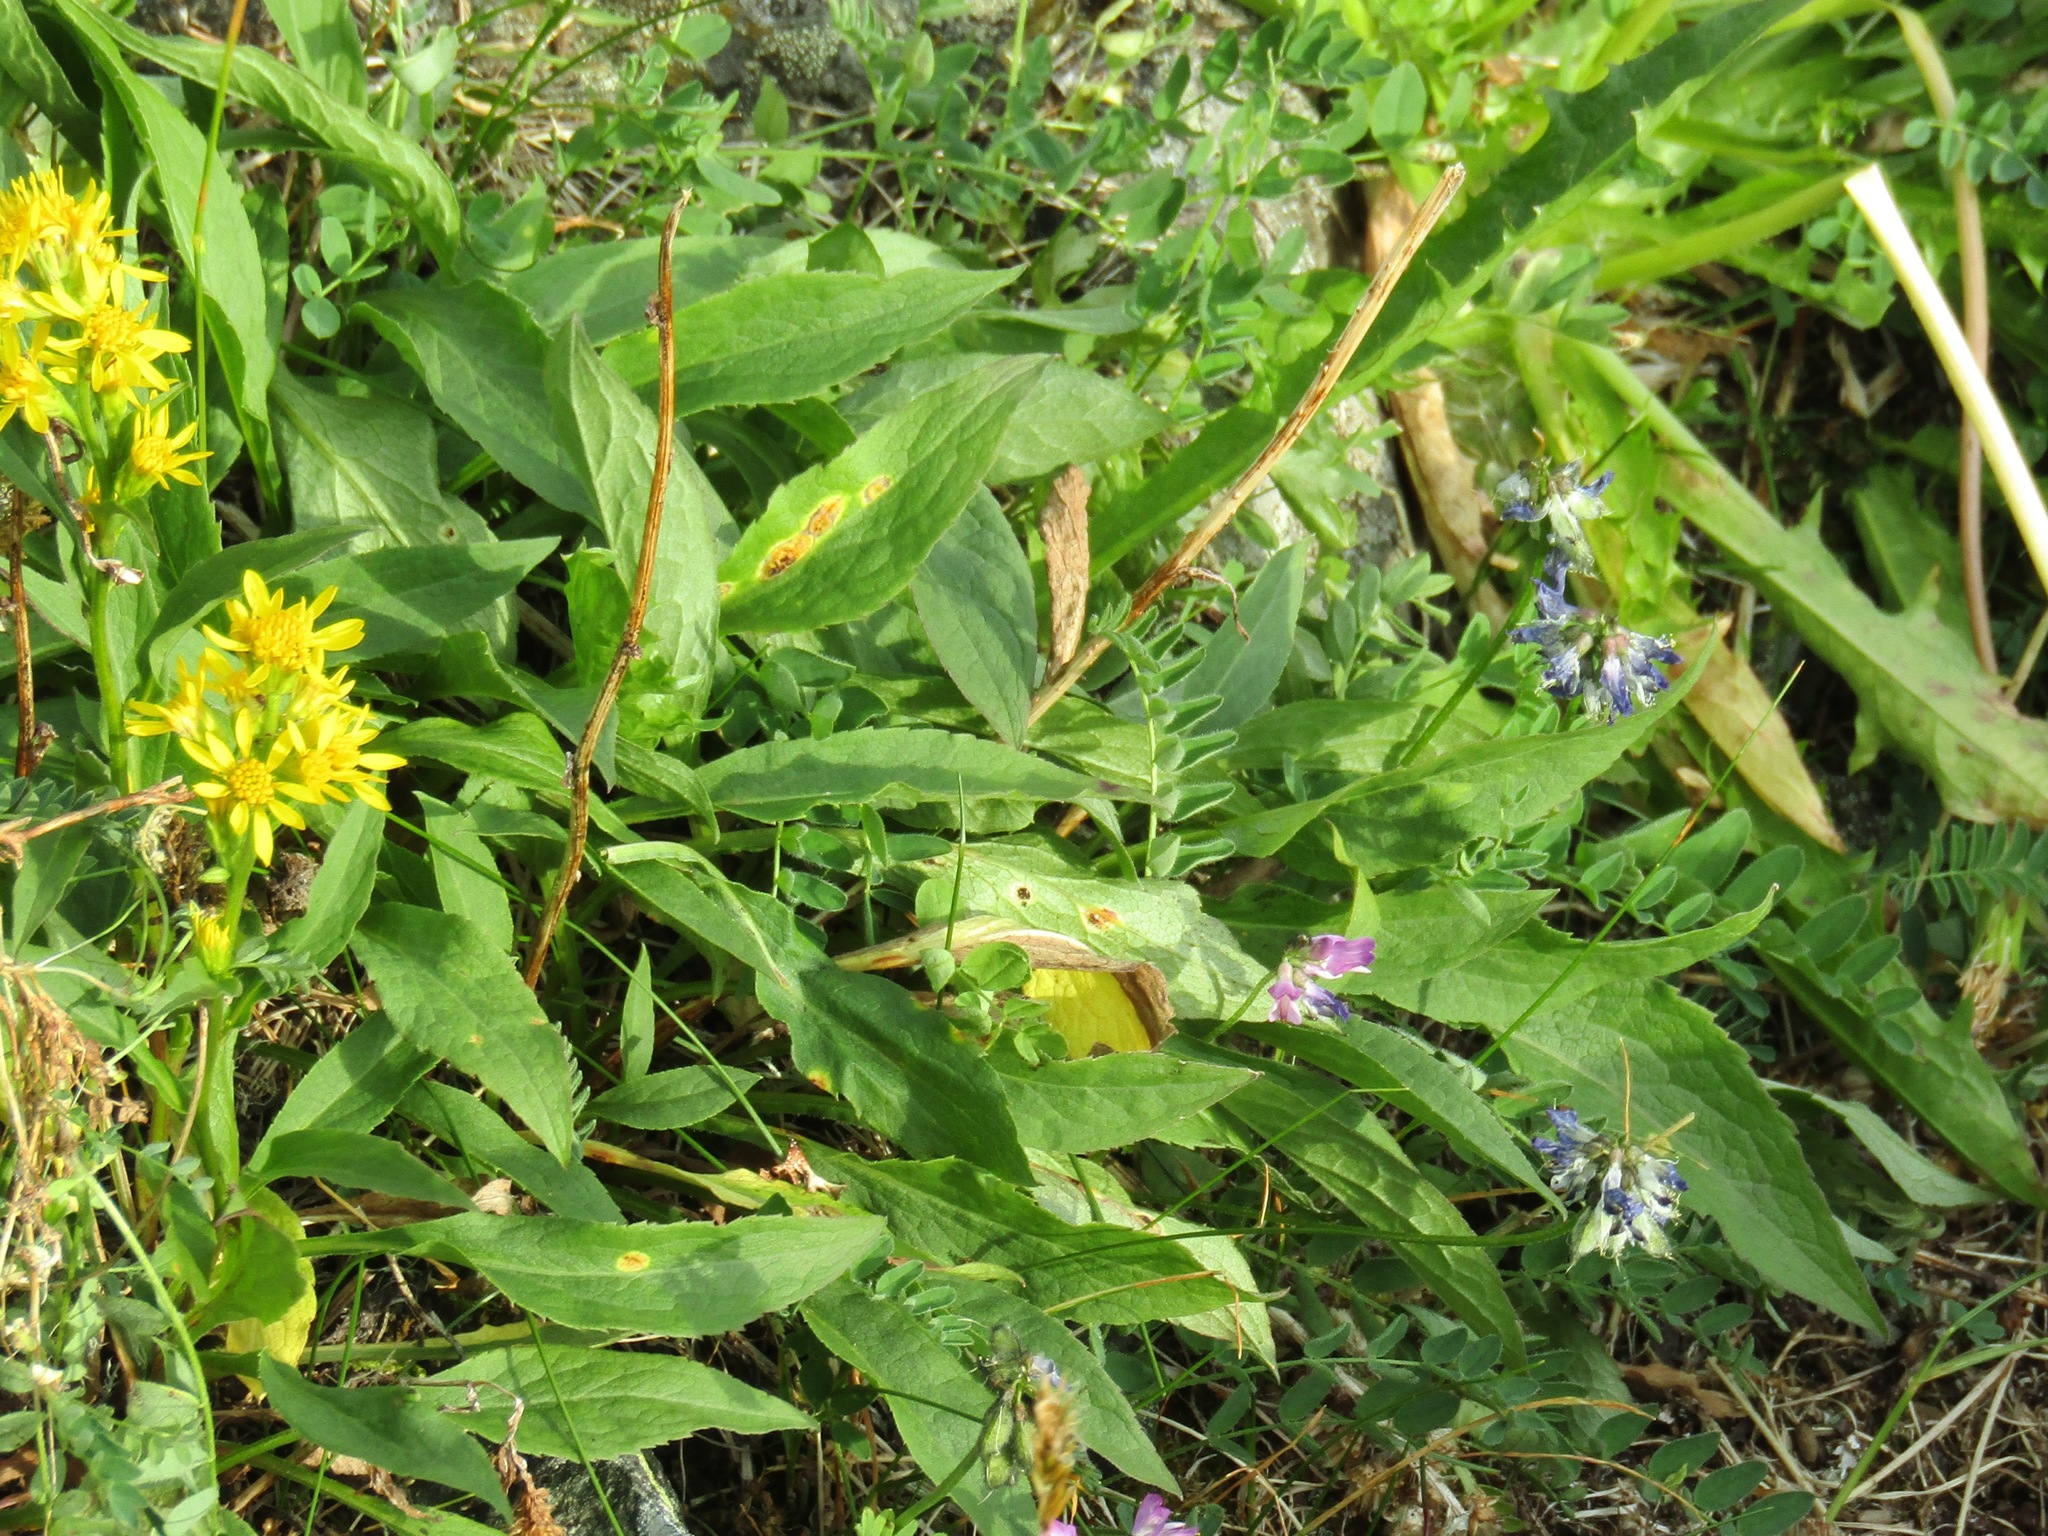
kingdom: Plantae
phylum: Tracheophyta
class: Magnoliopsida
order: Asterales
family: Asteraceae
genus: Solidago
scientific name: Solidago virgaurea
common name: Goldenrod
